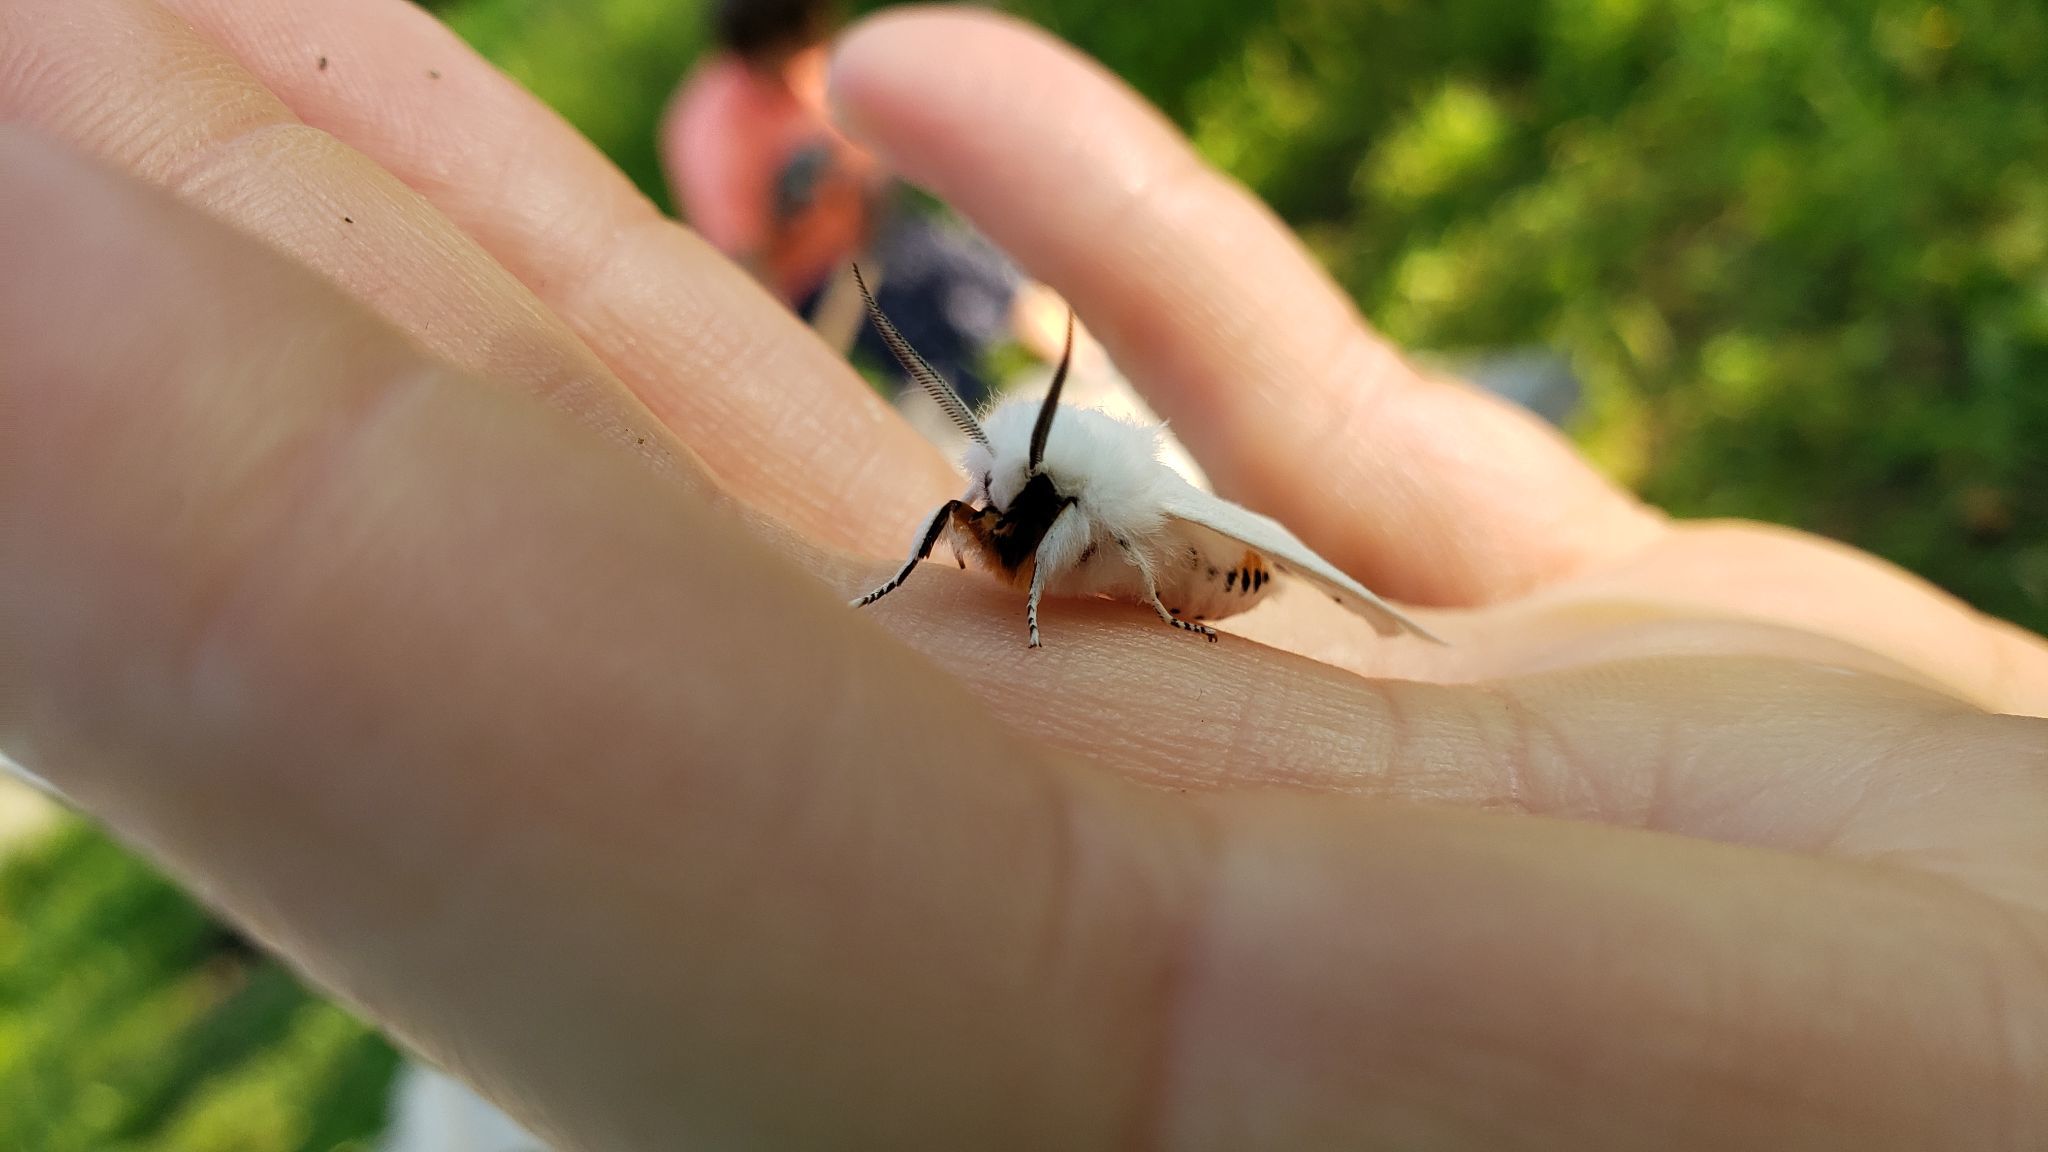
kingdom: Animalia
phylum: Arthropoda
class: Insecta
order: Lepidoptera
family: Erebidae
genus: Spilosoma
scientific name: Spilosoma virginica
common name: Virginia tiger moth
